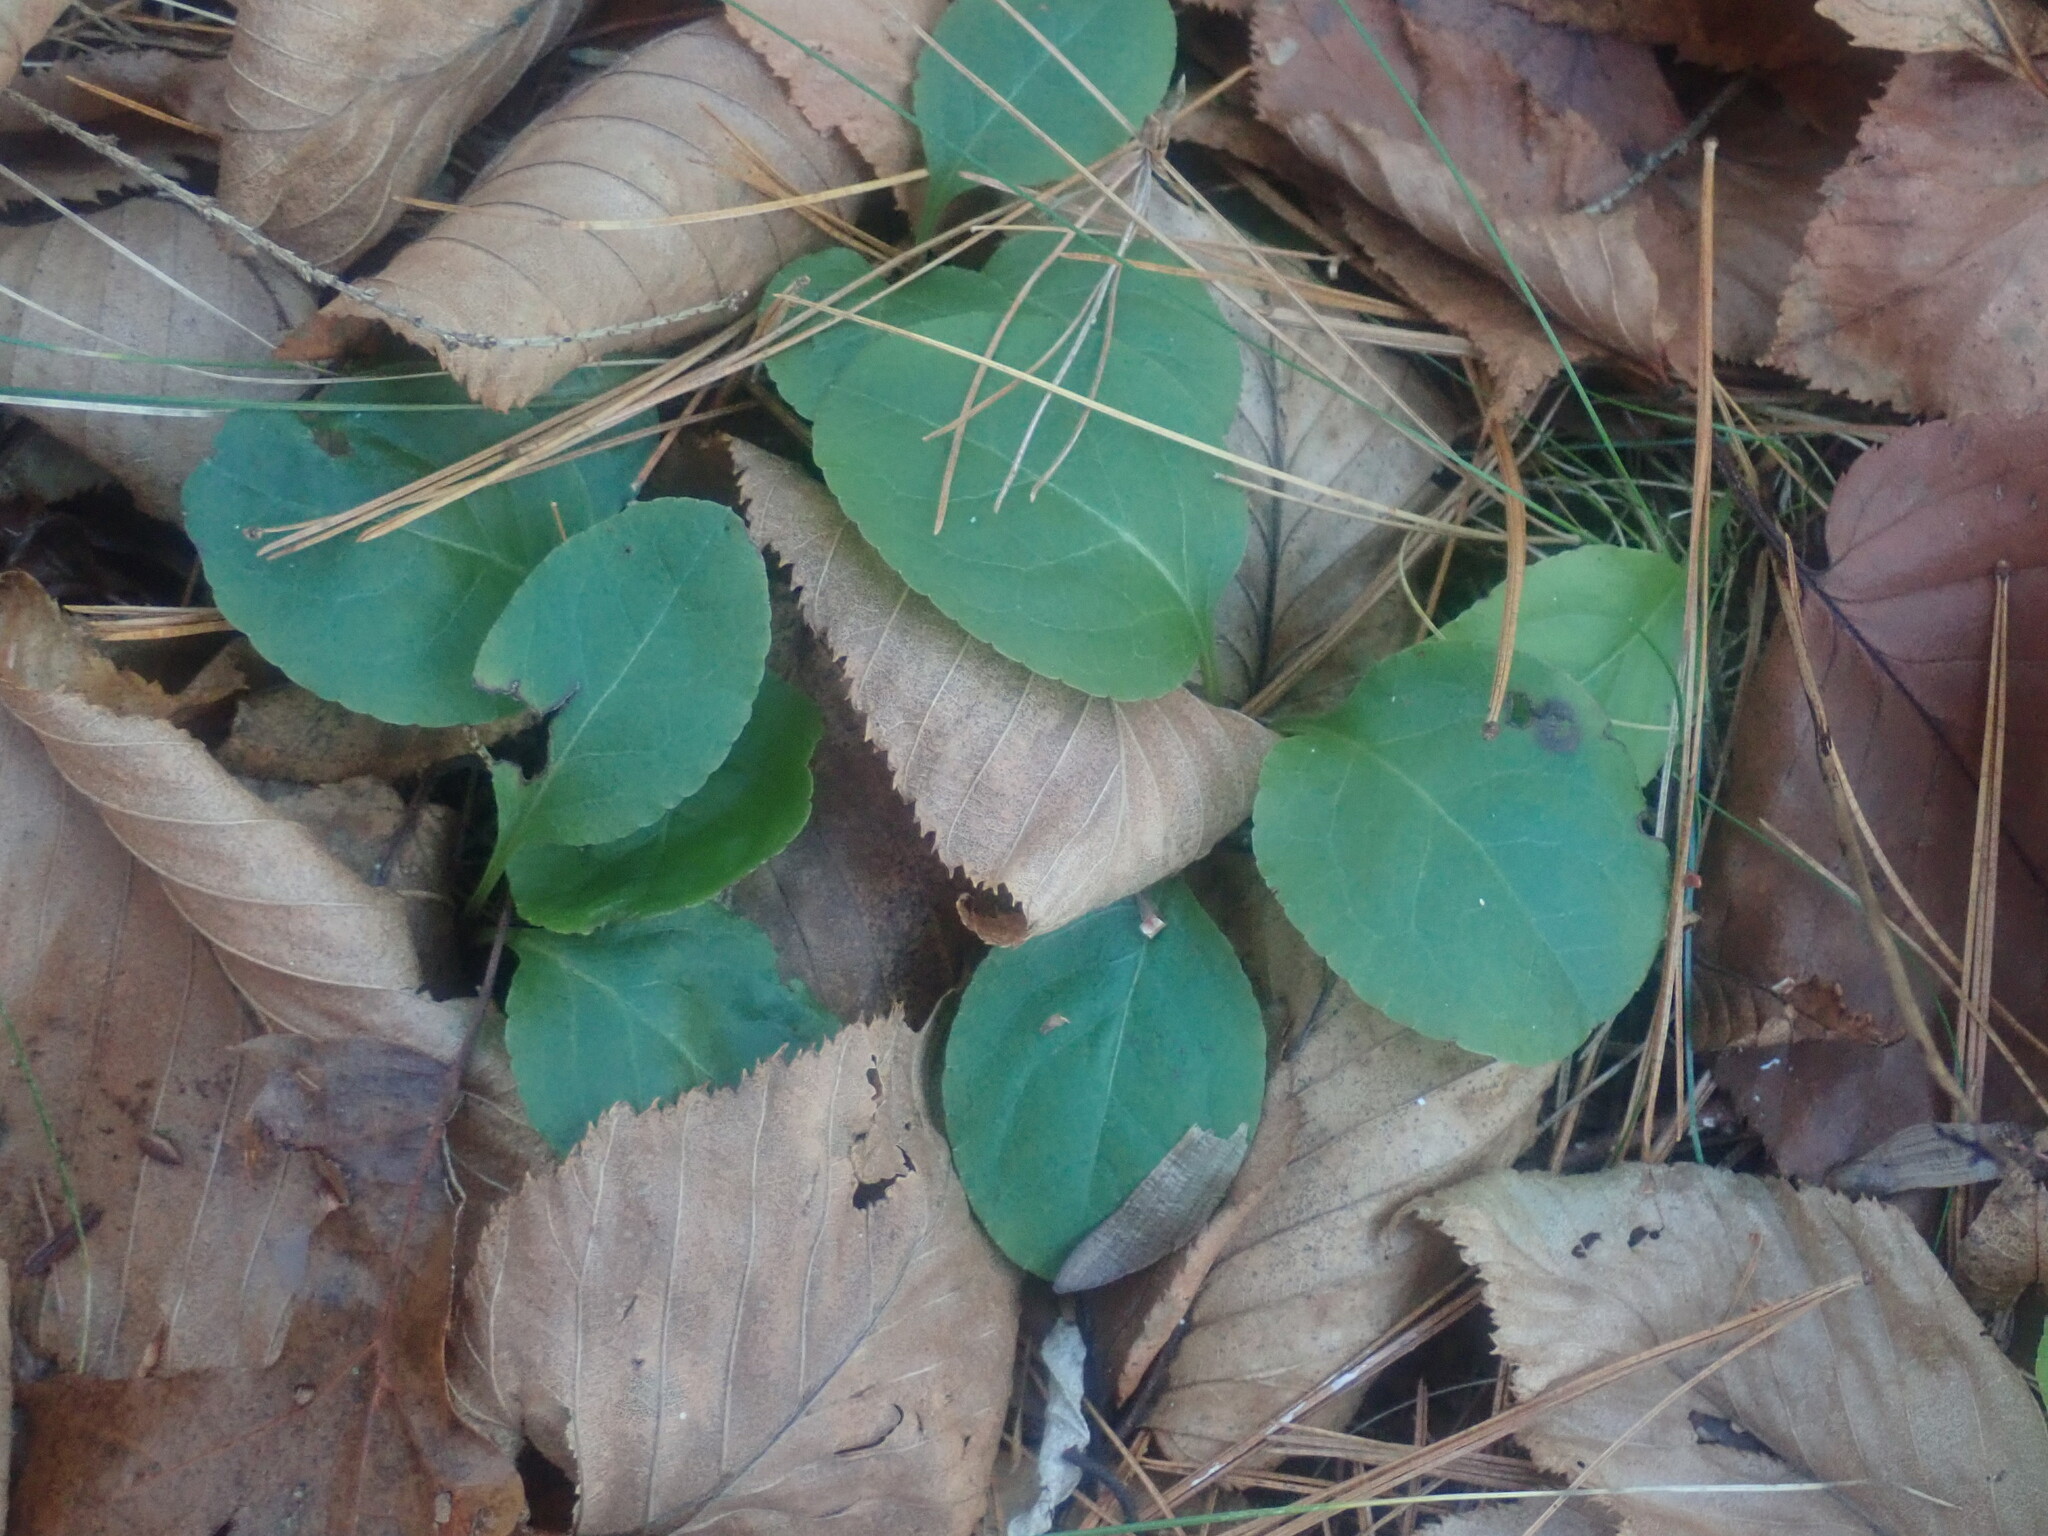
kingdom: Plantae
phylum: Tracheophyta
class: Magnoliopsida
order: Ericales
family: Ericaceae
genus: Pyrola
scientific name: Pyrola elliptica
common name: Shinleaf
